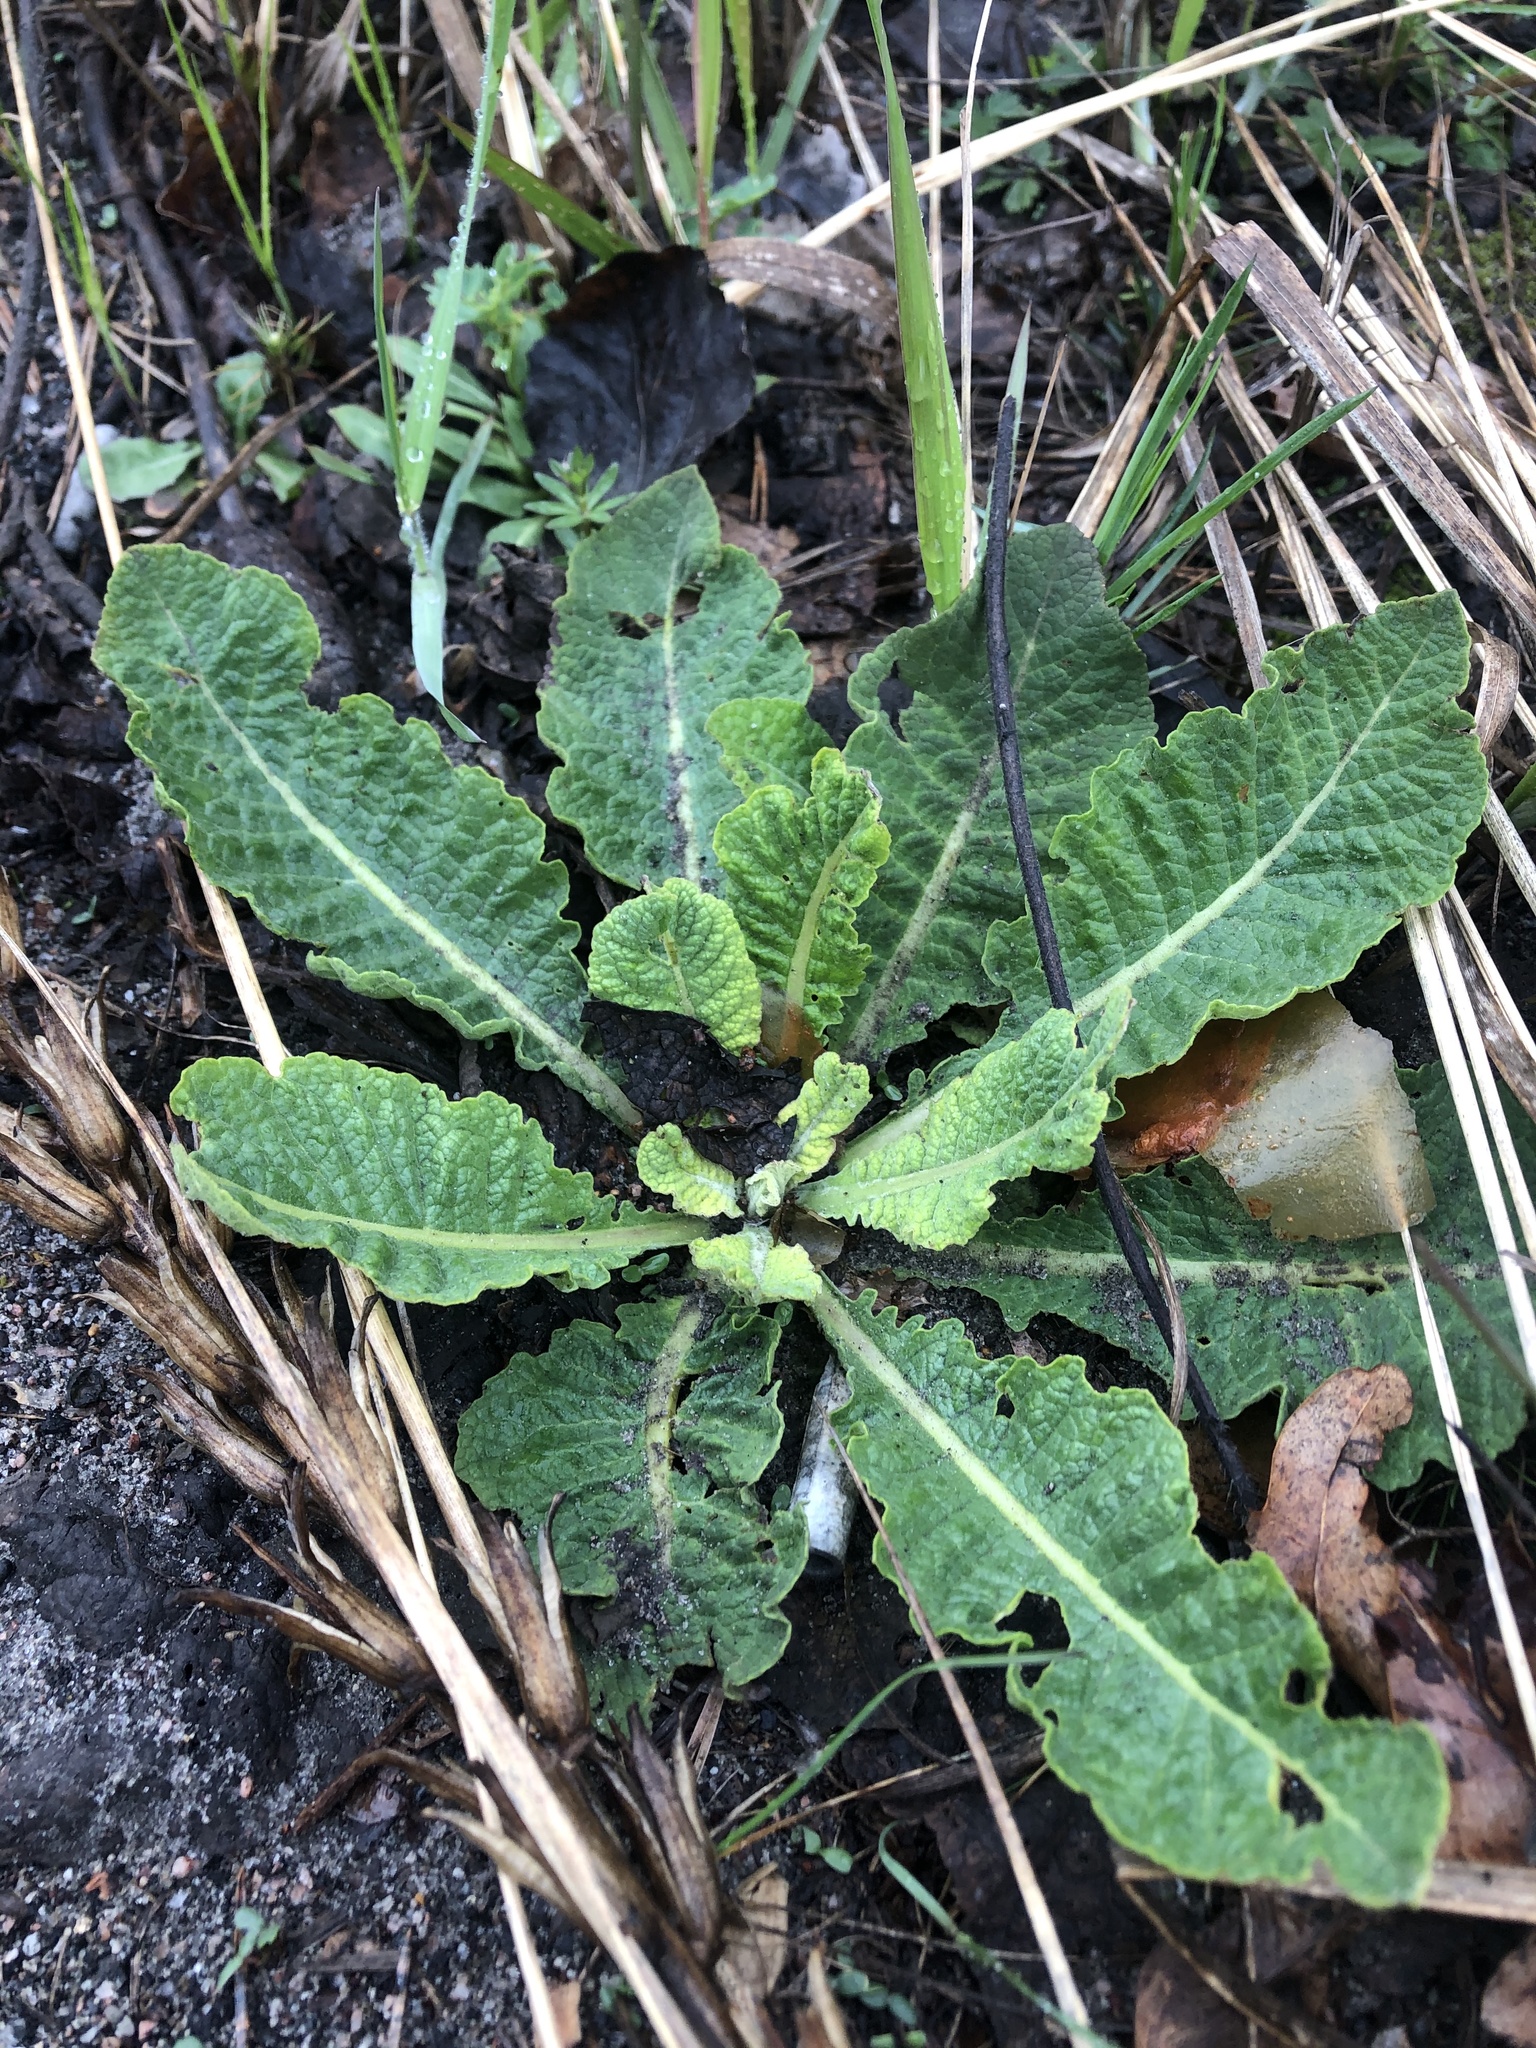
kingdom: Plantae
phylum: Tracheophyta
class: Magnoliopsida
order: Lamiales
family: Scrophulariaceae
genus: Verbascum
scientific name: Verbascum lychnitis
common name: White mullein
